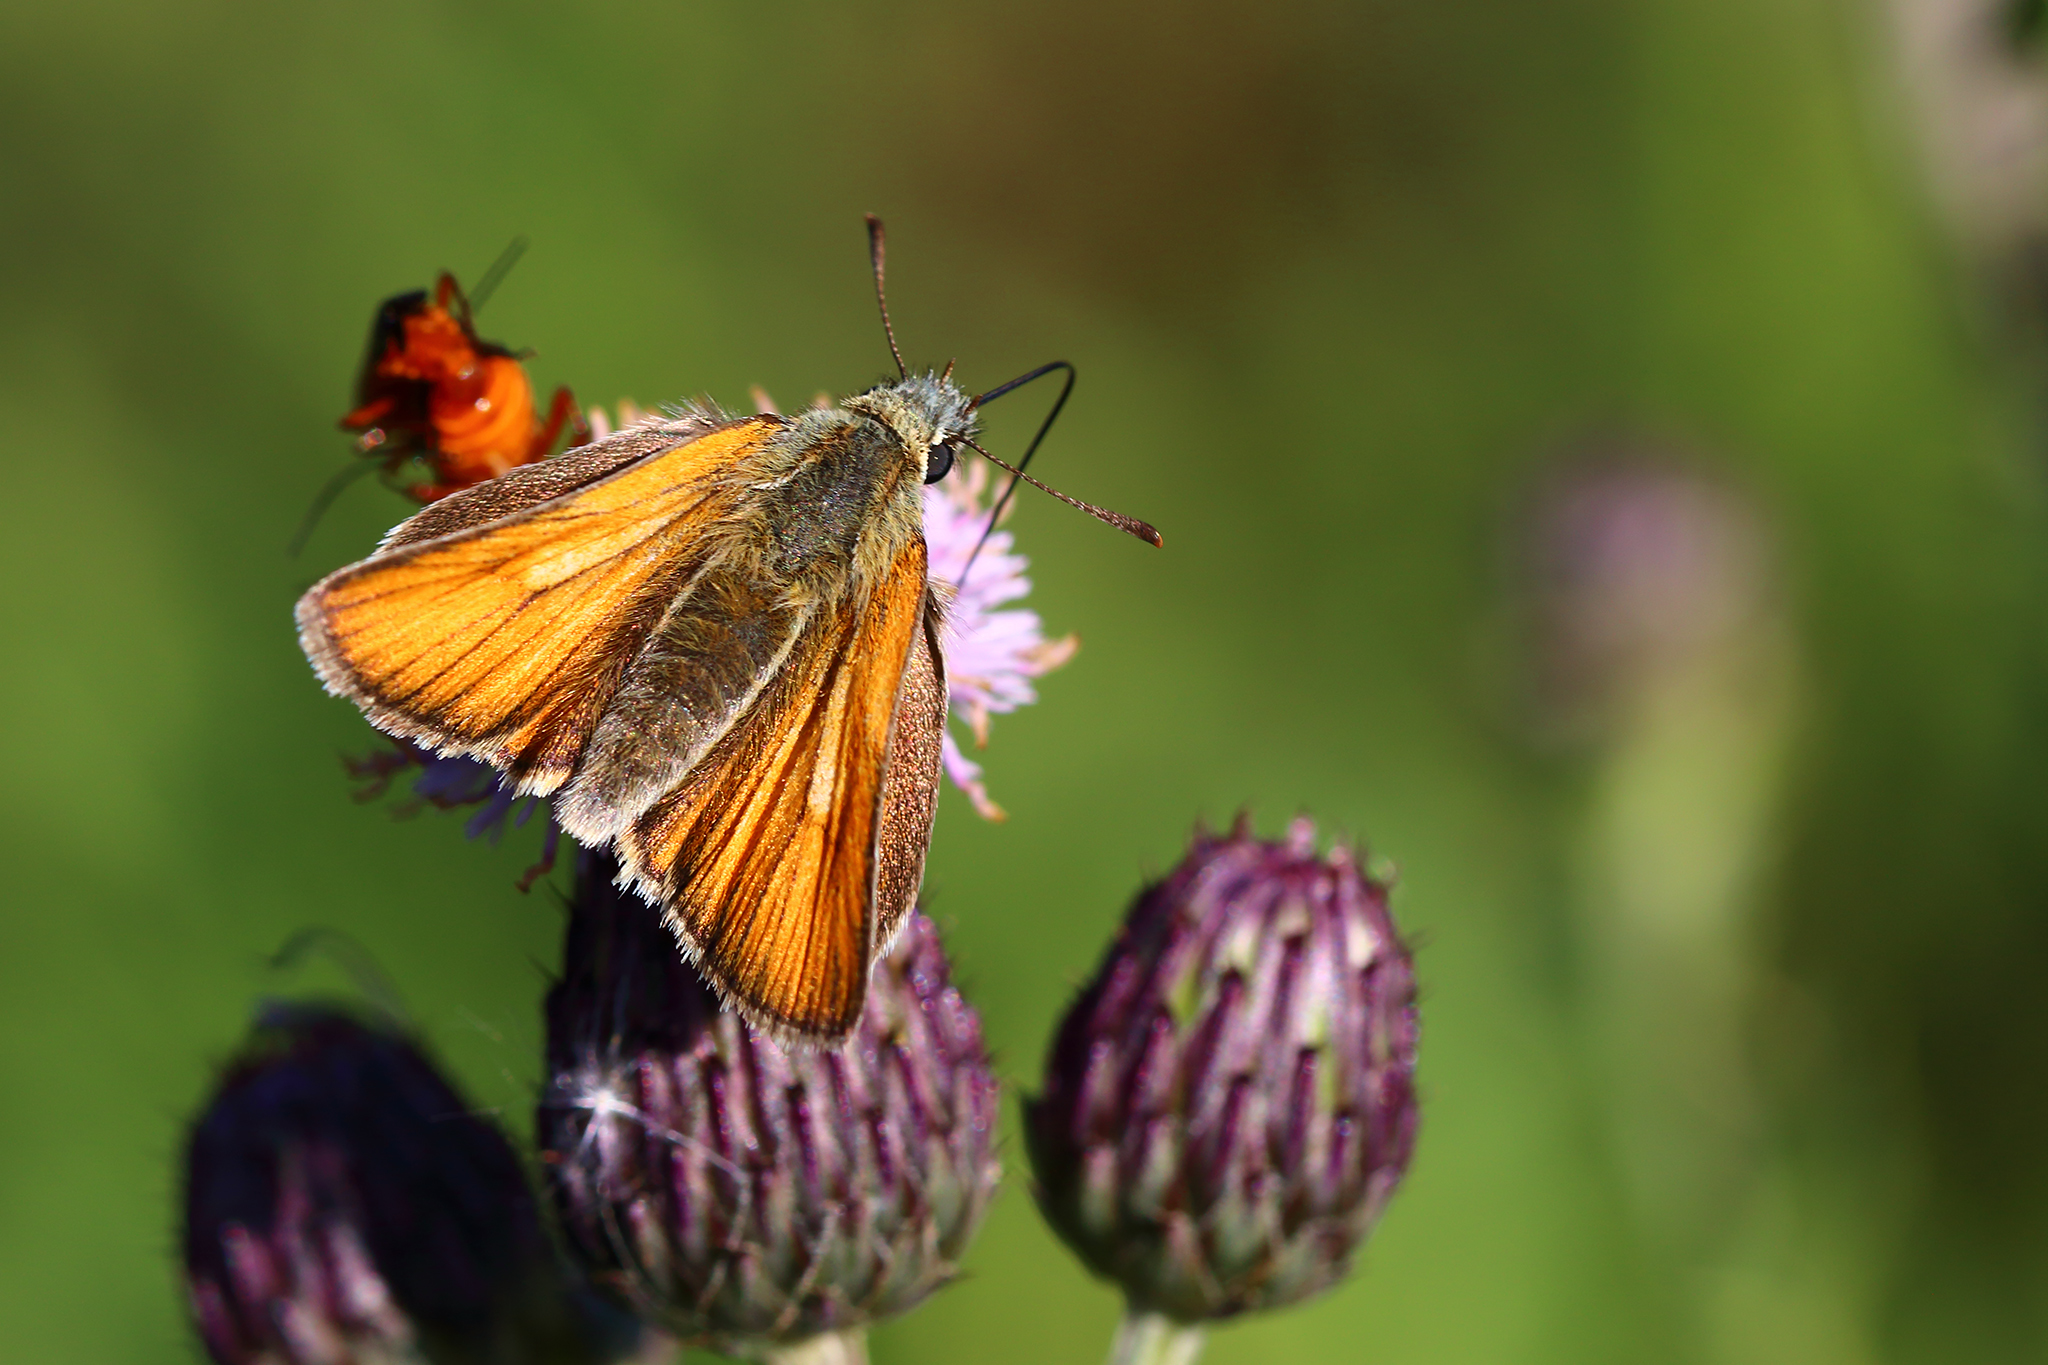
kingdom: Animalia
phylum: Arthropoda
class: Insecta
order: Lepidoptera
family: Hesperiidae
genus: Thymelicus
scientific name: Thymelicus sylvestris
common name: Small skipper
